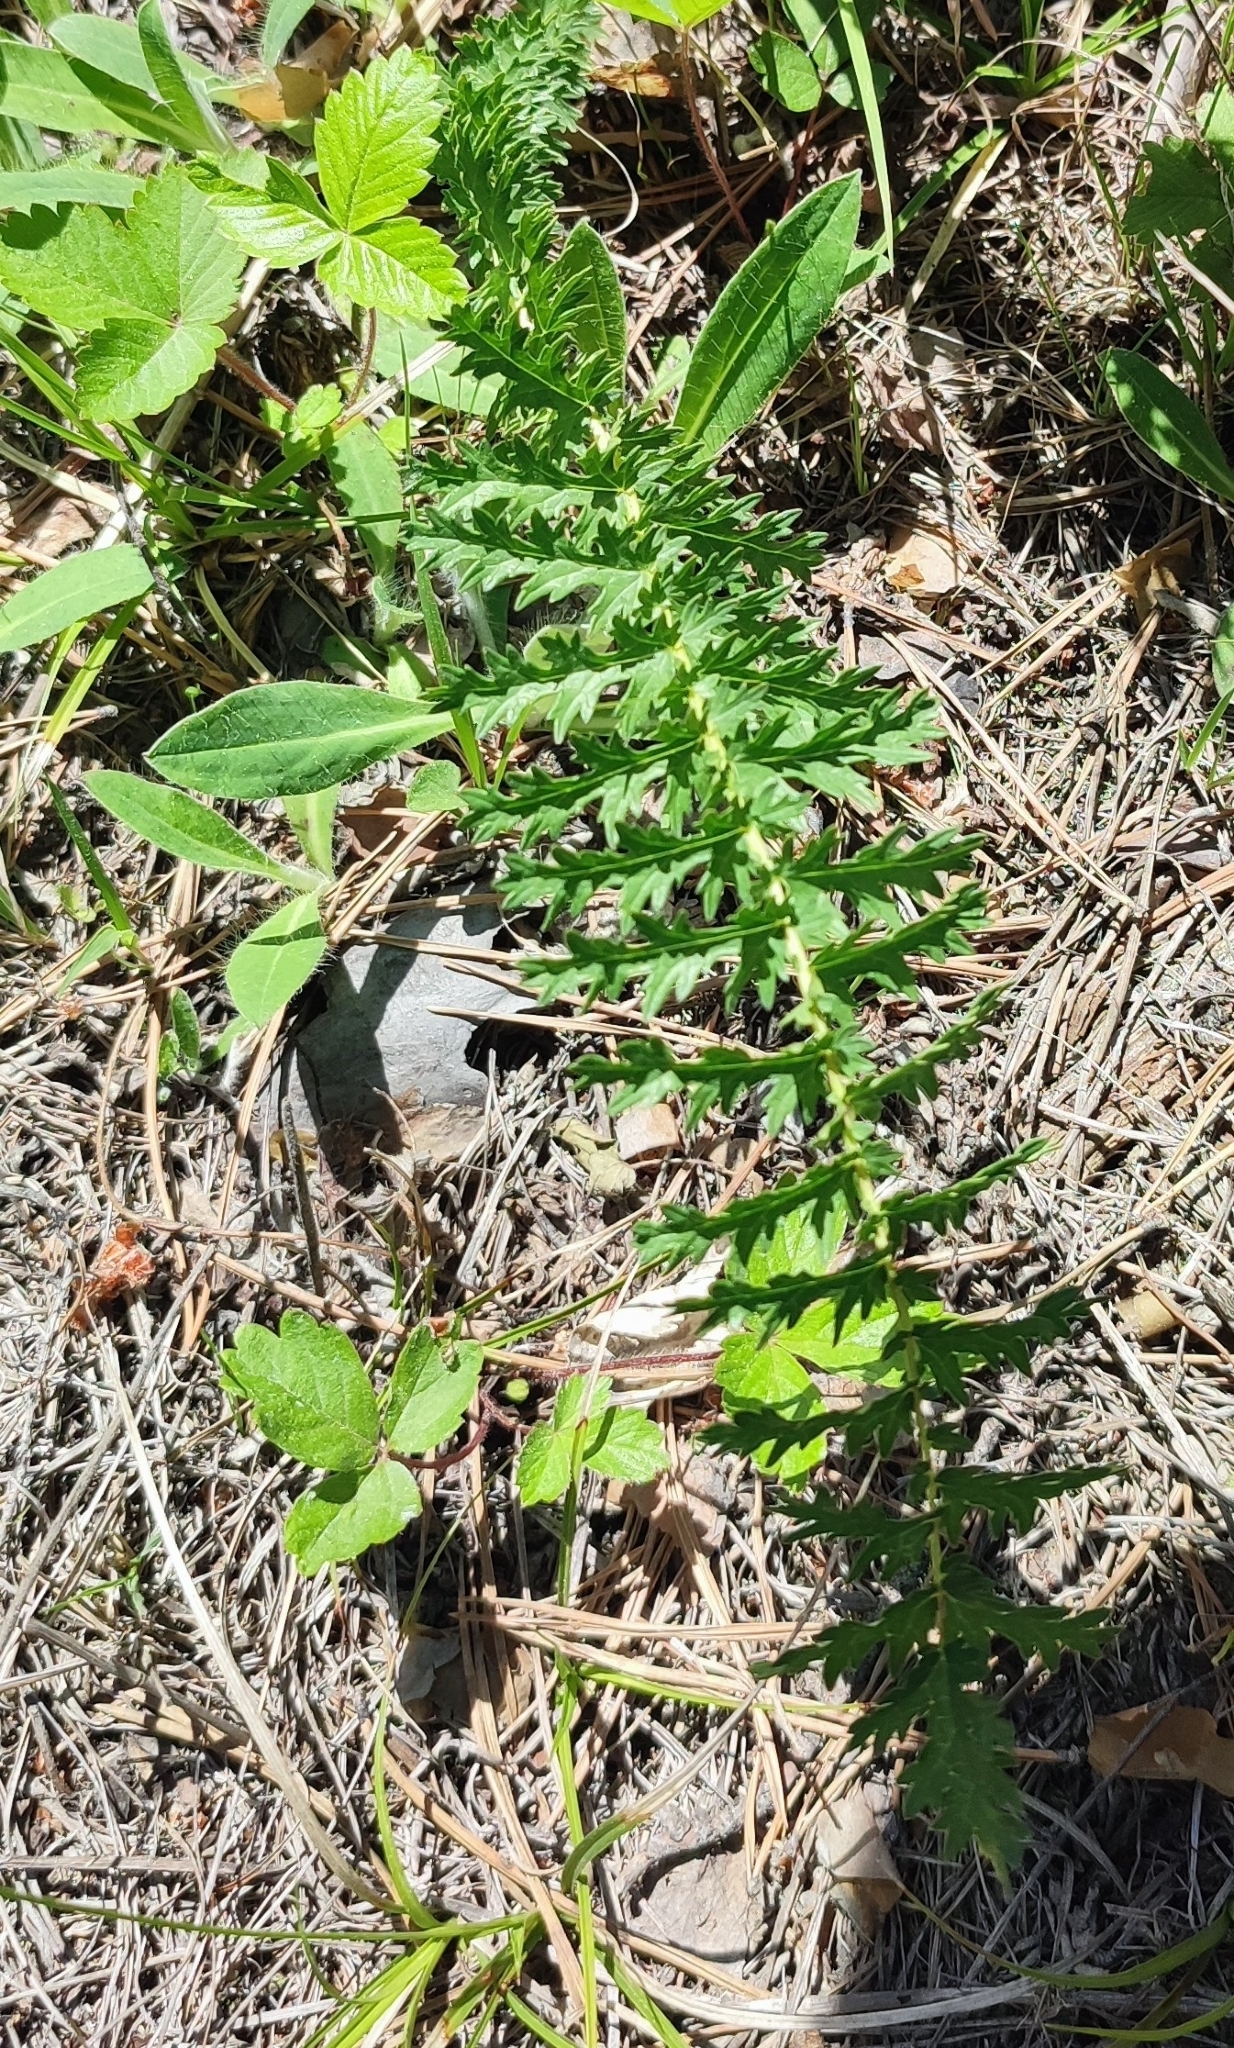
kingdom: Plantae
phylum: Tracheophyta
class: Magnoliopsida
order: Rosales
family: Rosaceae
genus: Filipendula
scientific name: Filipendula vulgaris
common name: Dropwort
